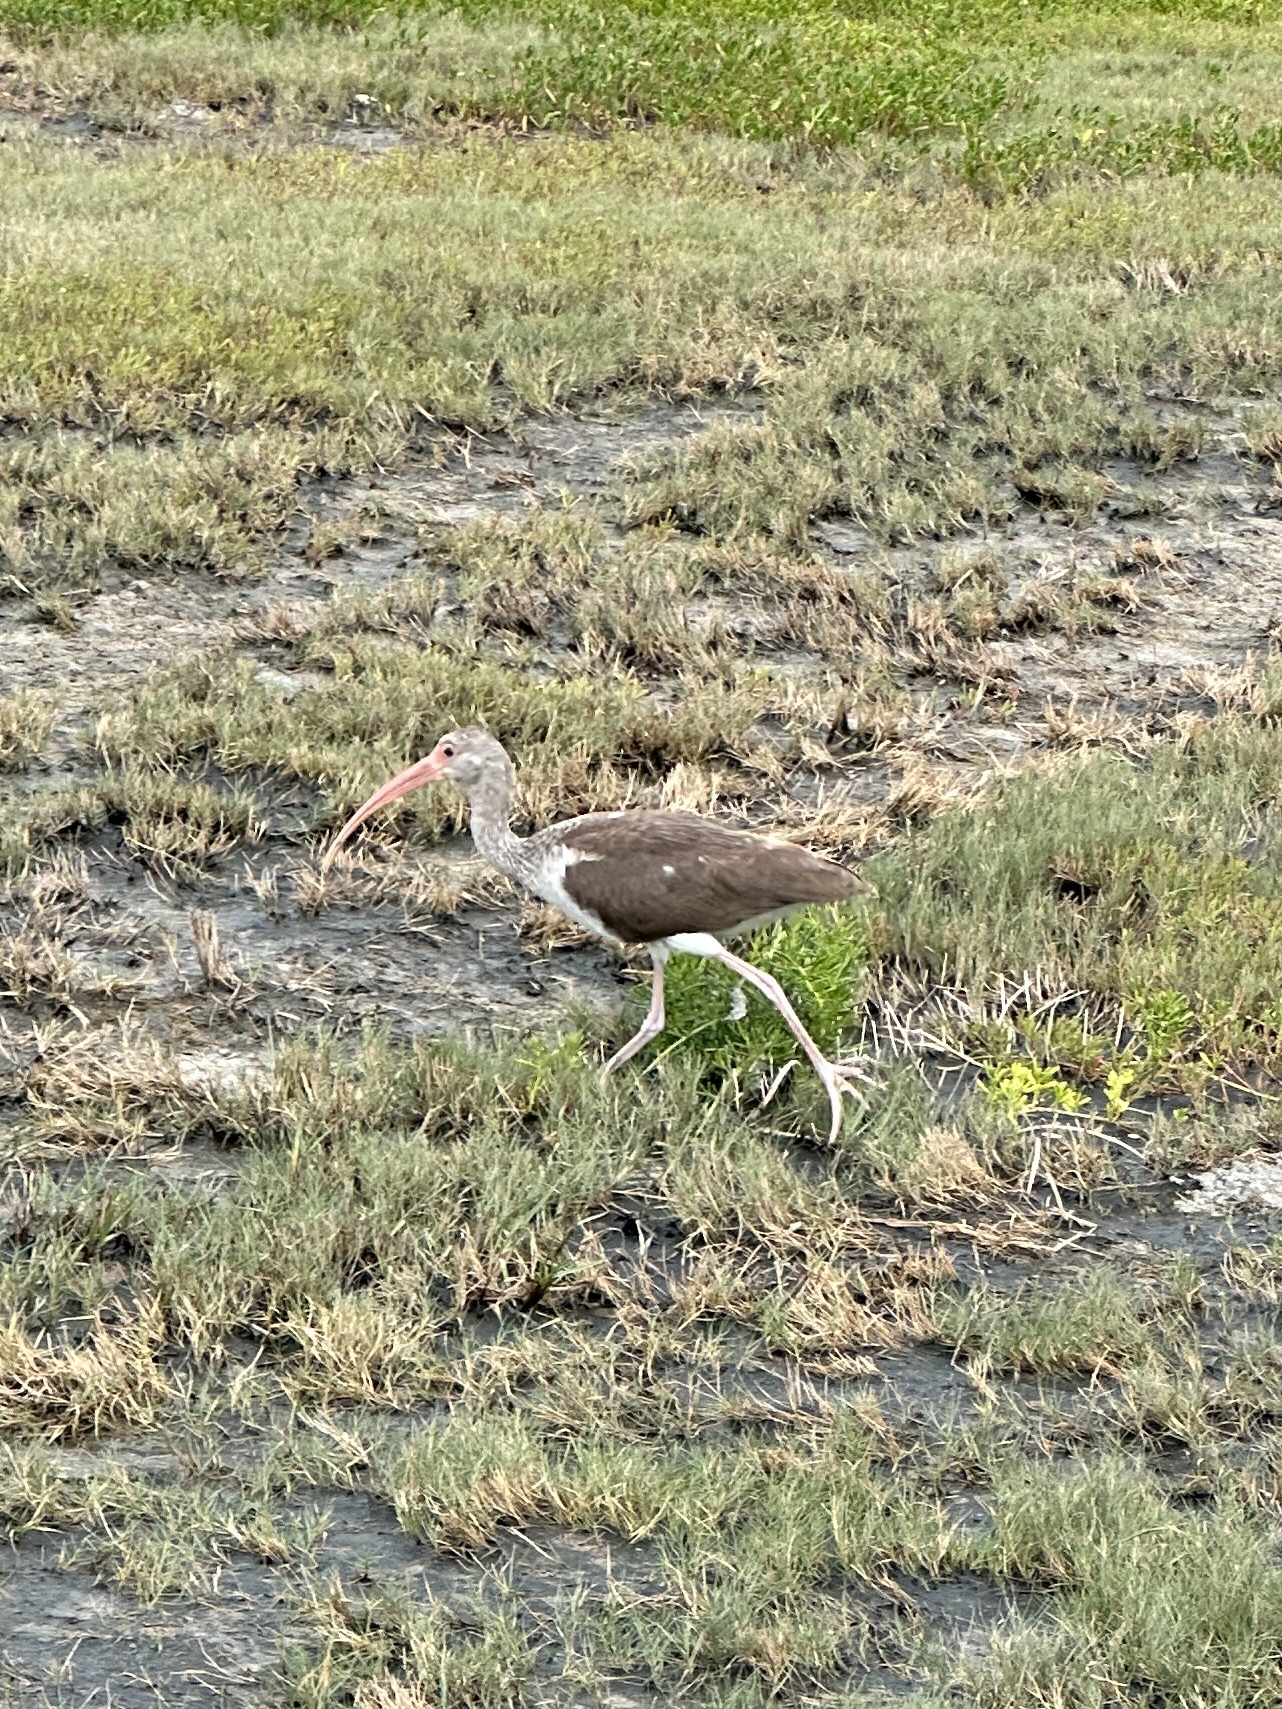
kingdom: Animalia
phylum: Chordata
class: Aves
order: Pelecaniformes
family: Threskiornithidae
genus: Eudocimus
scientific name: Eudocimus albus
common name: White ibis
